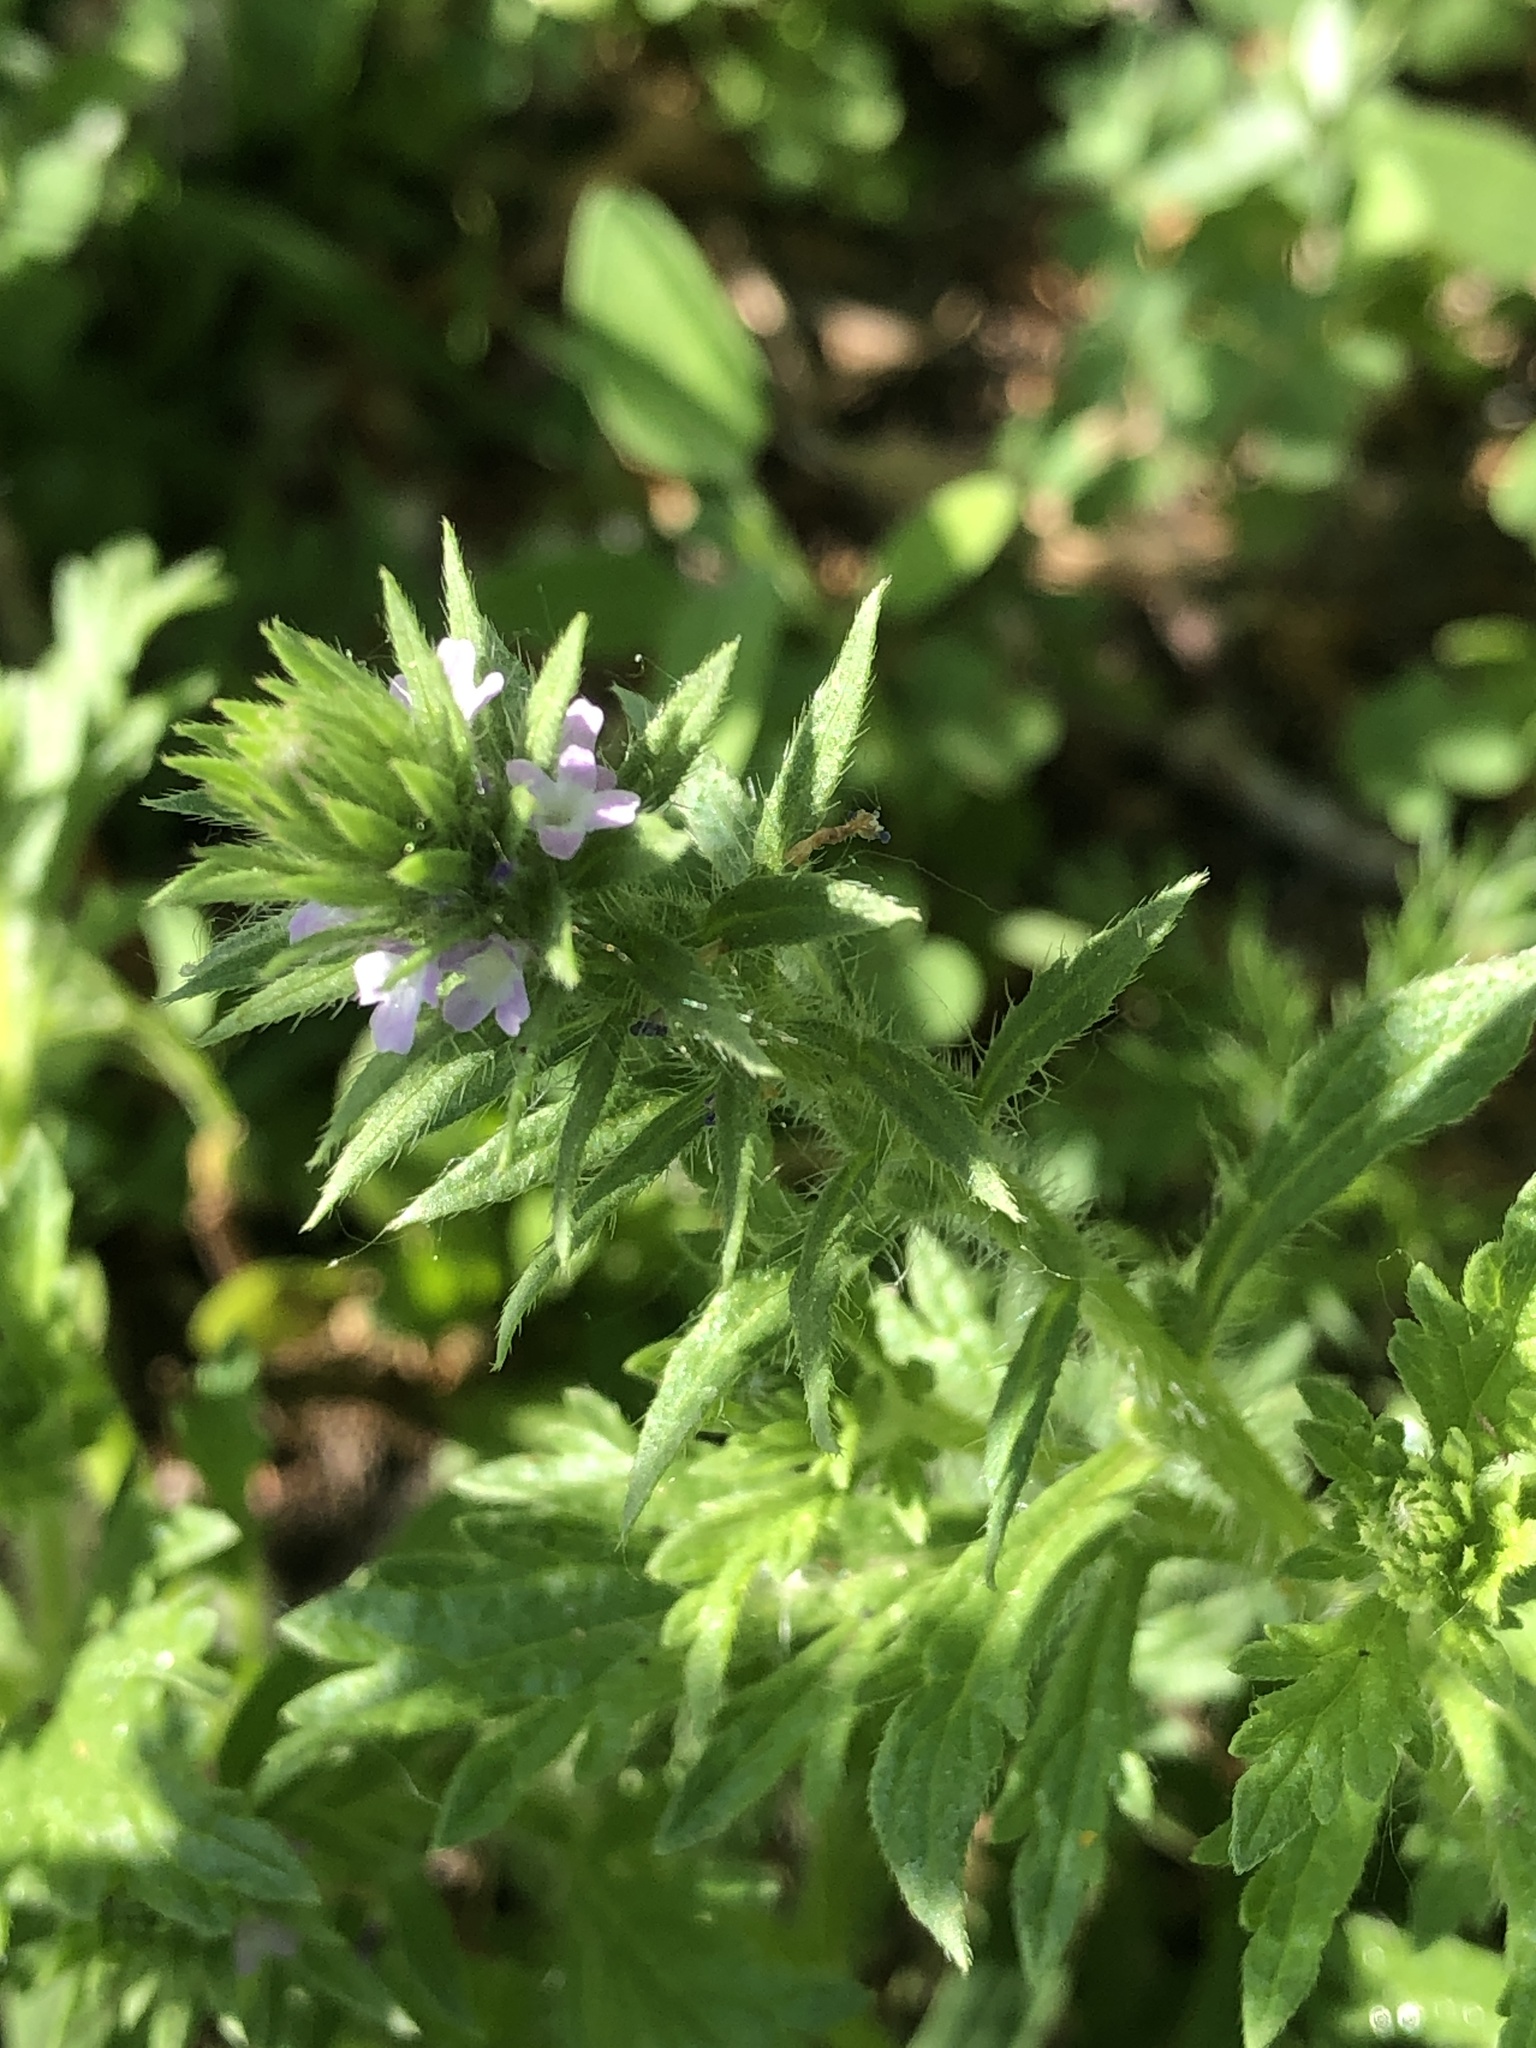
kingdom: Plantae
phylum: Tracheophyta
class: Magnoliopsida
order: Lamiales
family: Verbenaceae
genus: Verbena
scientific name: Verbena bracteata
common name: Bracted vervain
